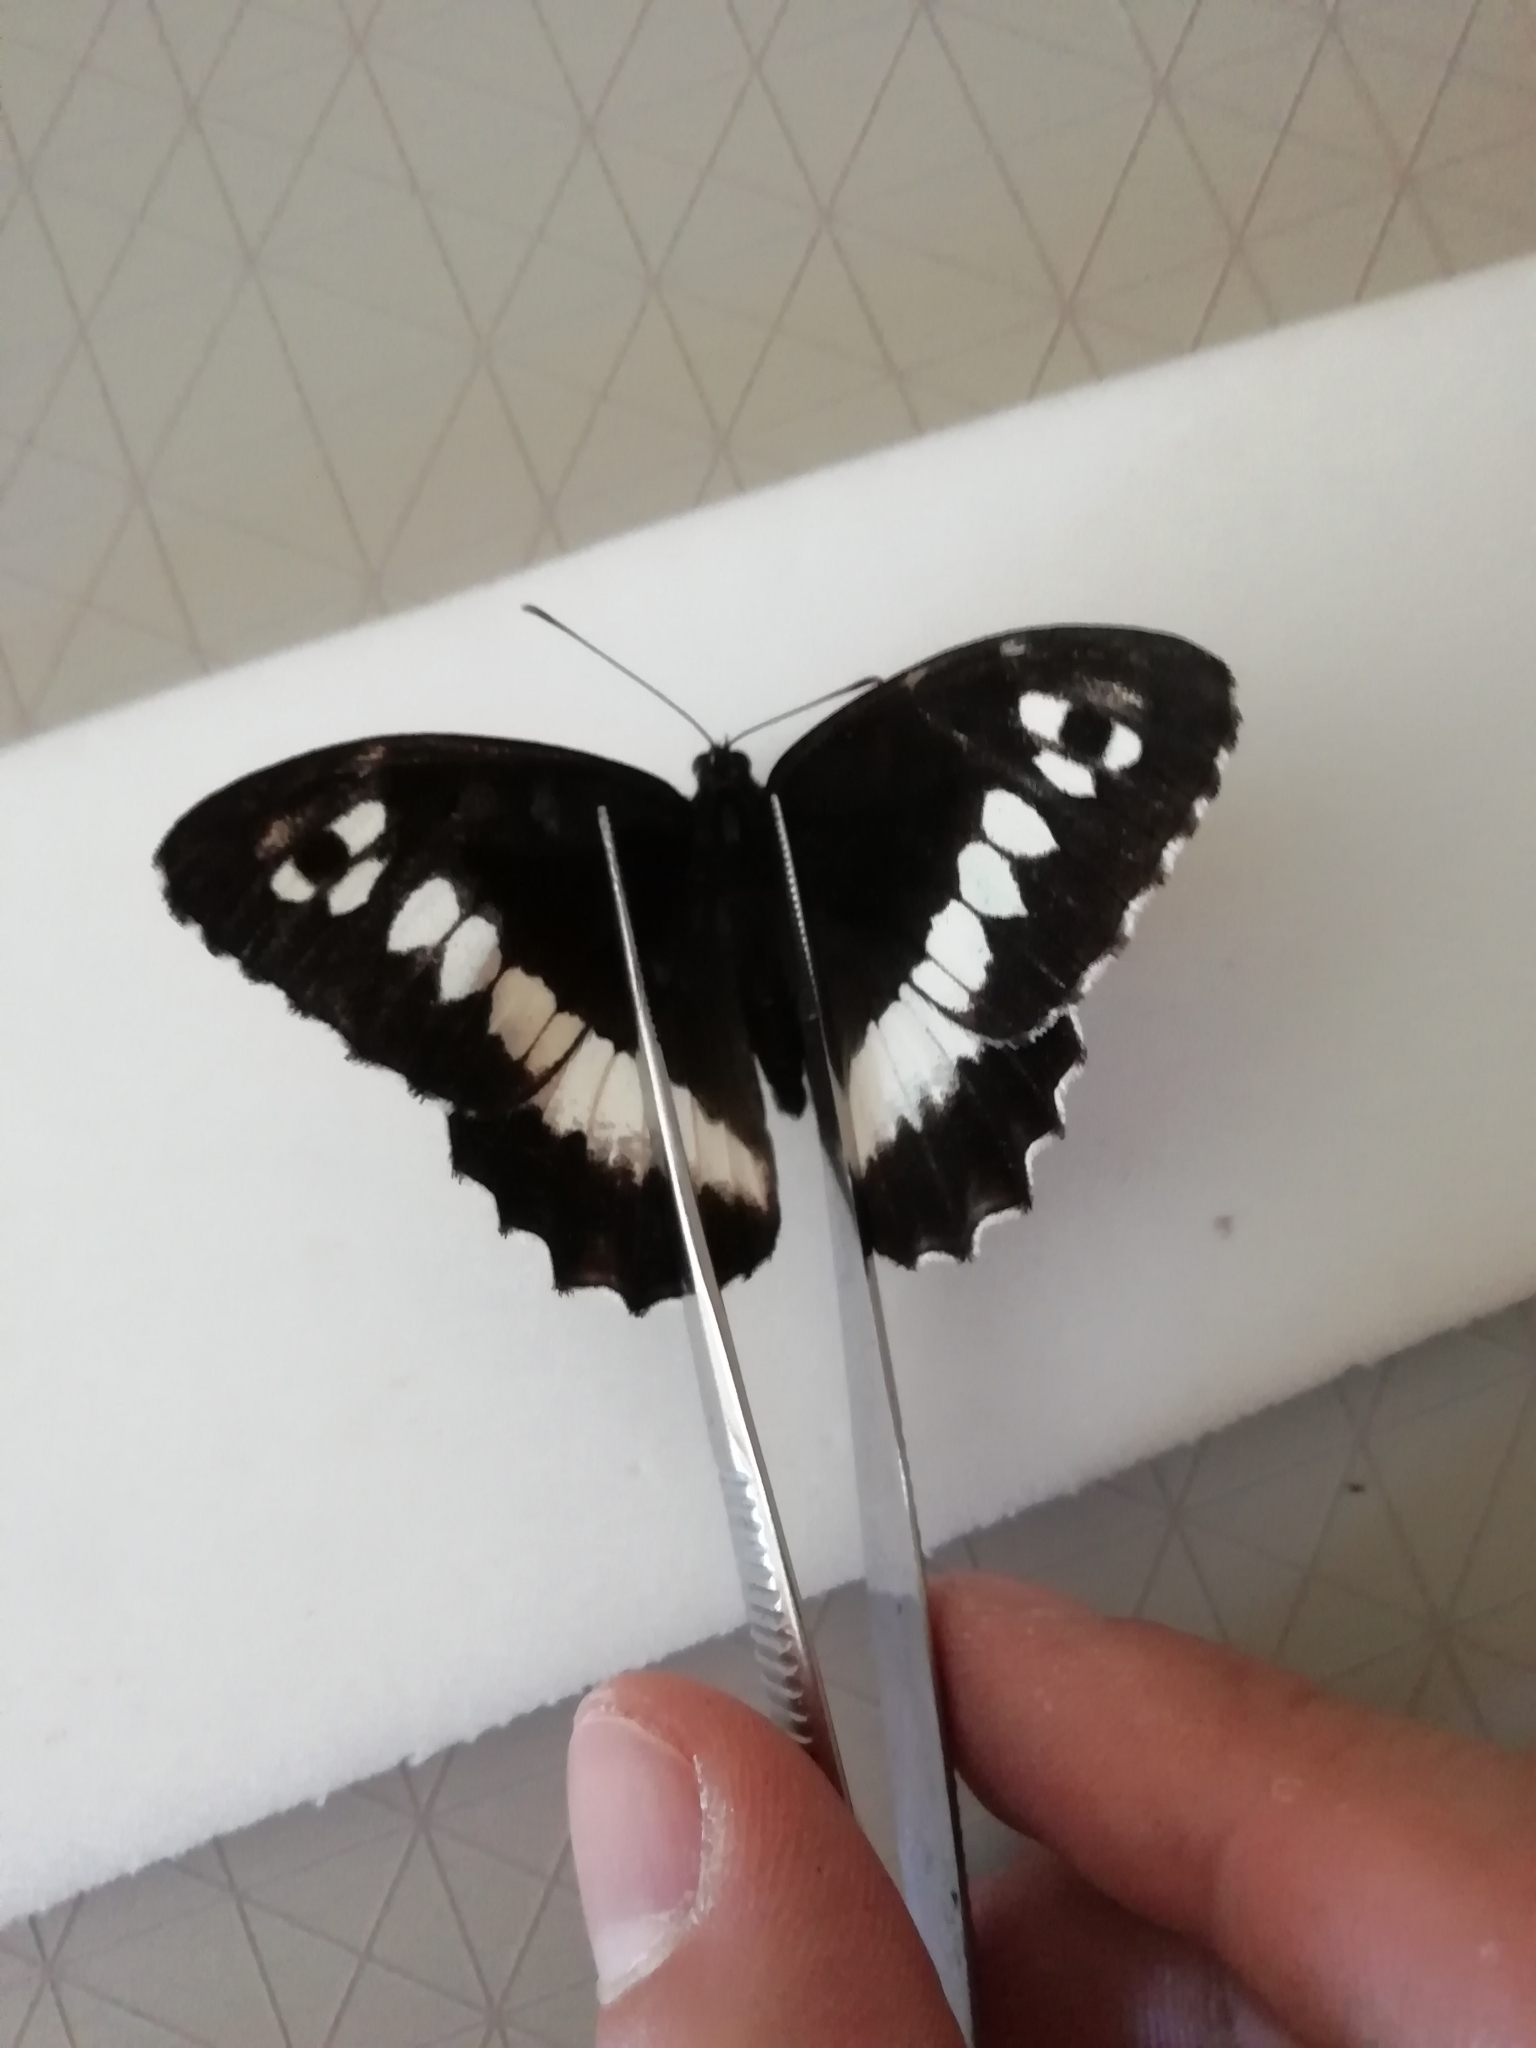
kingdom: Animalia
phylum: Arthropoda
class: Insecta
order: Lepidoptera
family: Lycaenidae
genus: Loweia
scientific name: Loweia tityrus
